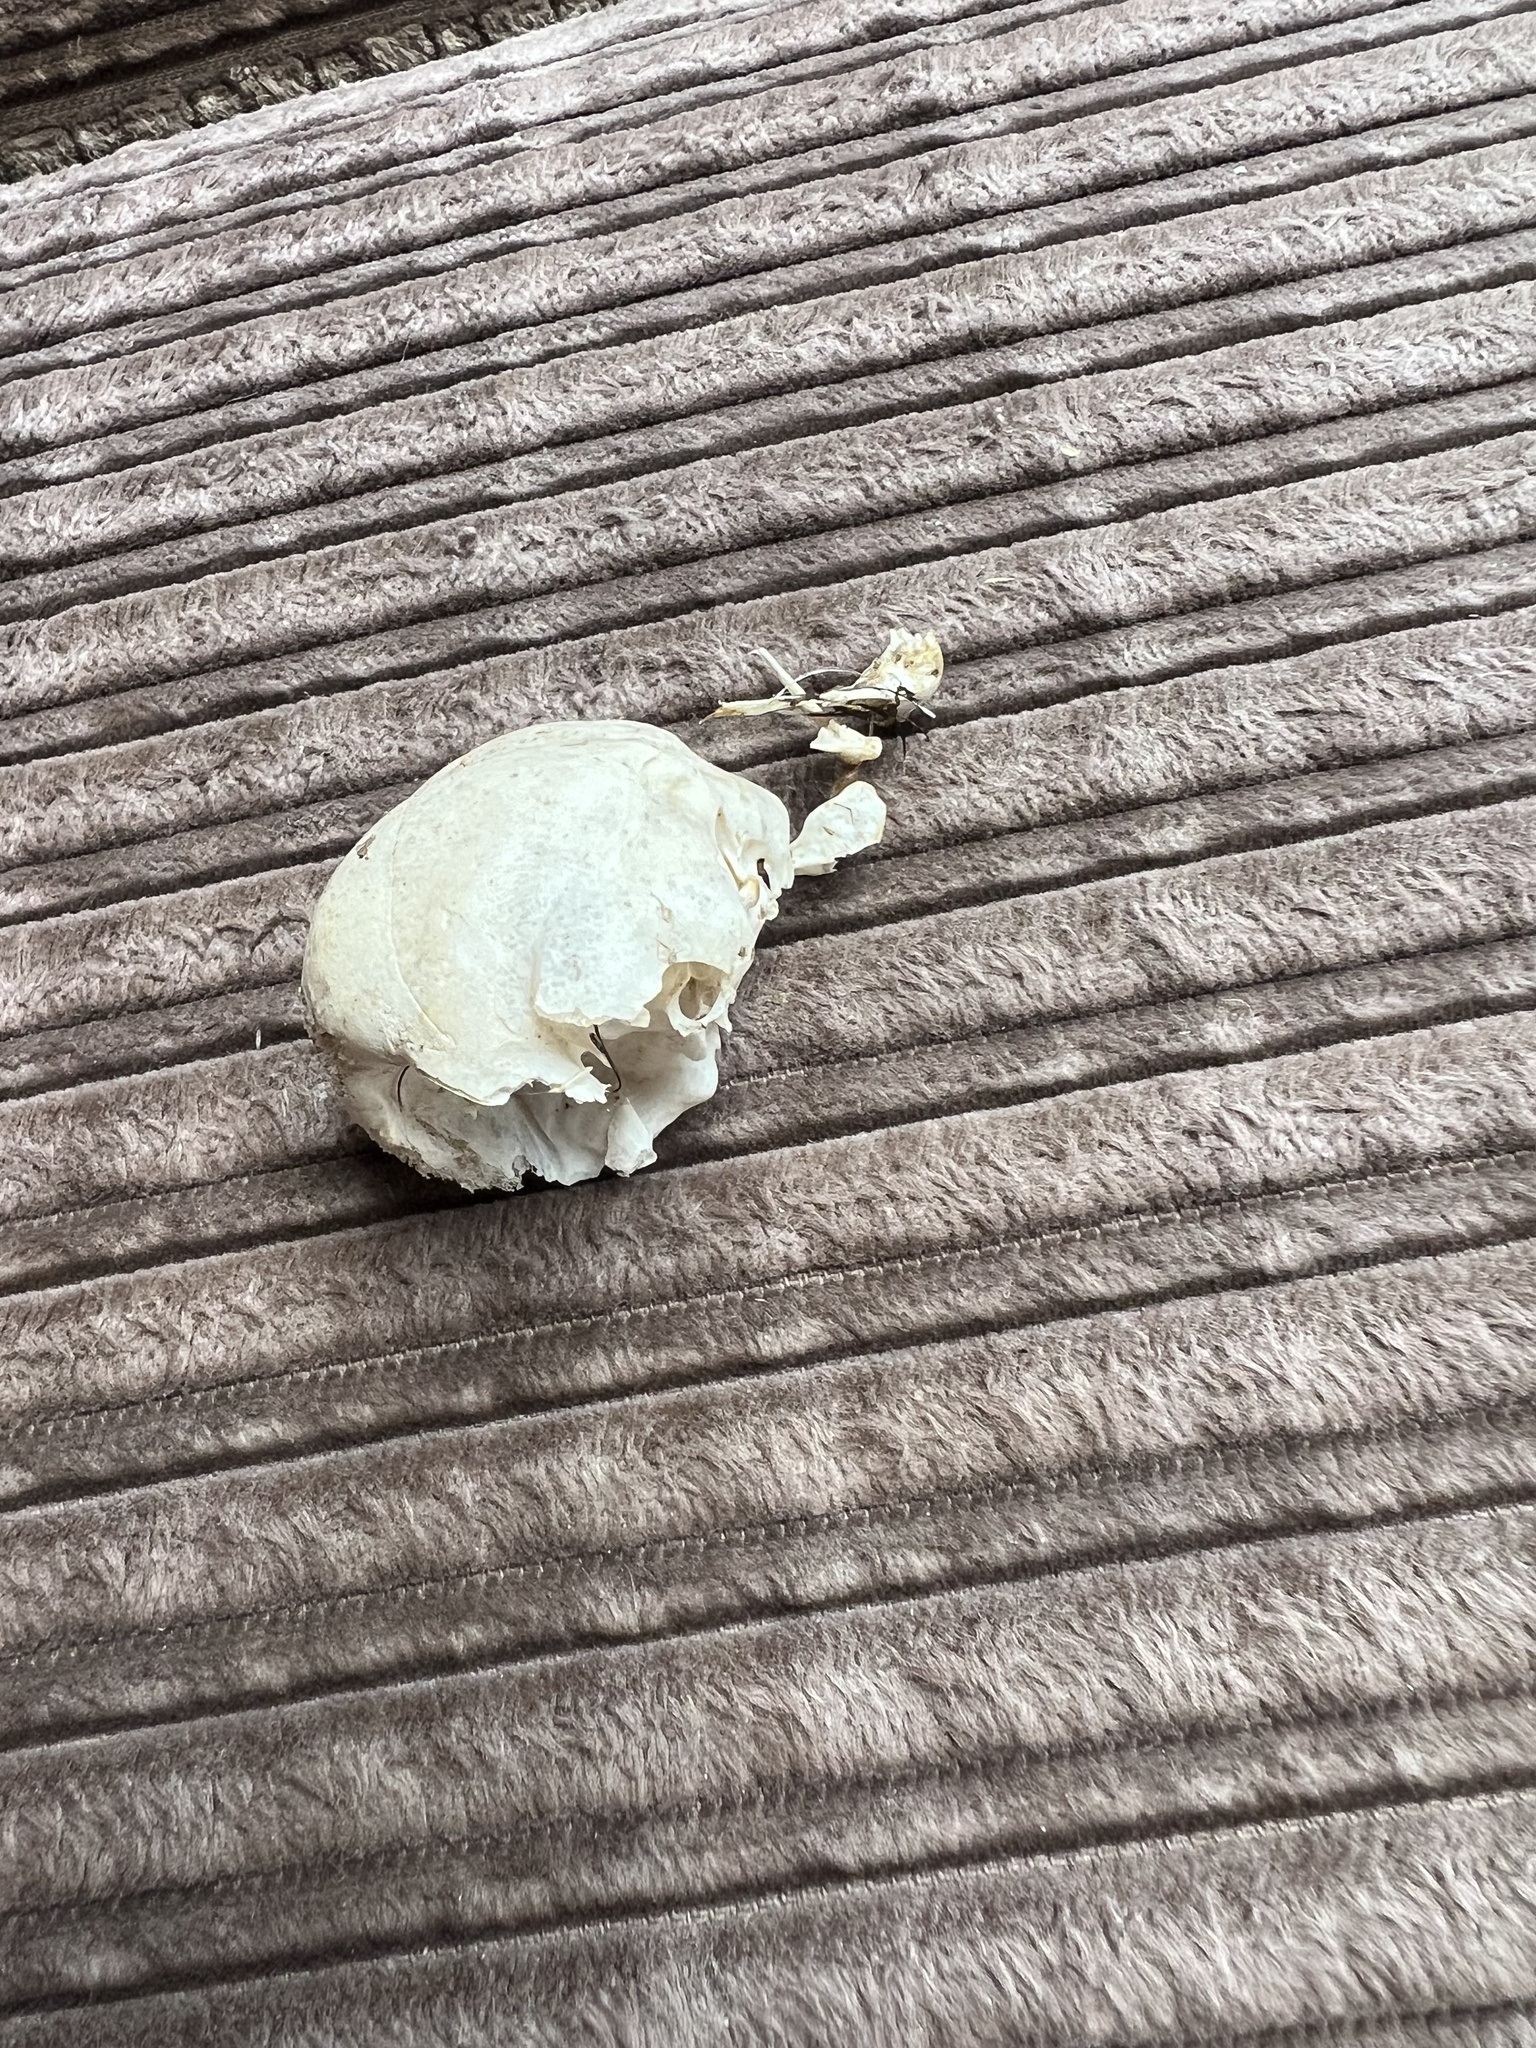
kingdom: Animalia
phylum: Chordata
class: Aves
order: Galliformes
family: Phasianidae
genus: Meleagris
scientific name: Meleagris gallopavo
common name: Wild turkey
